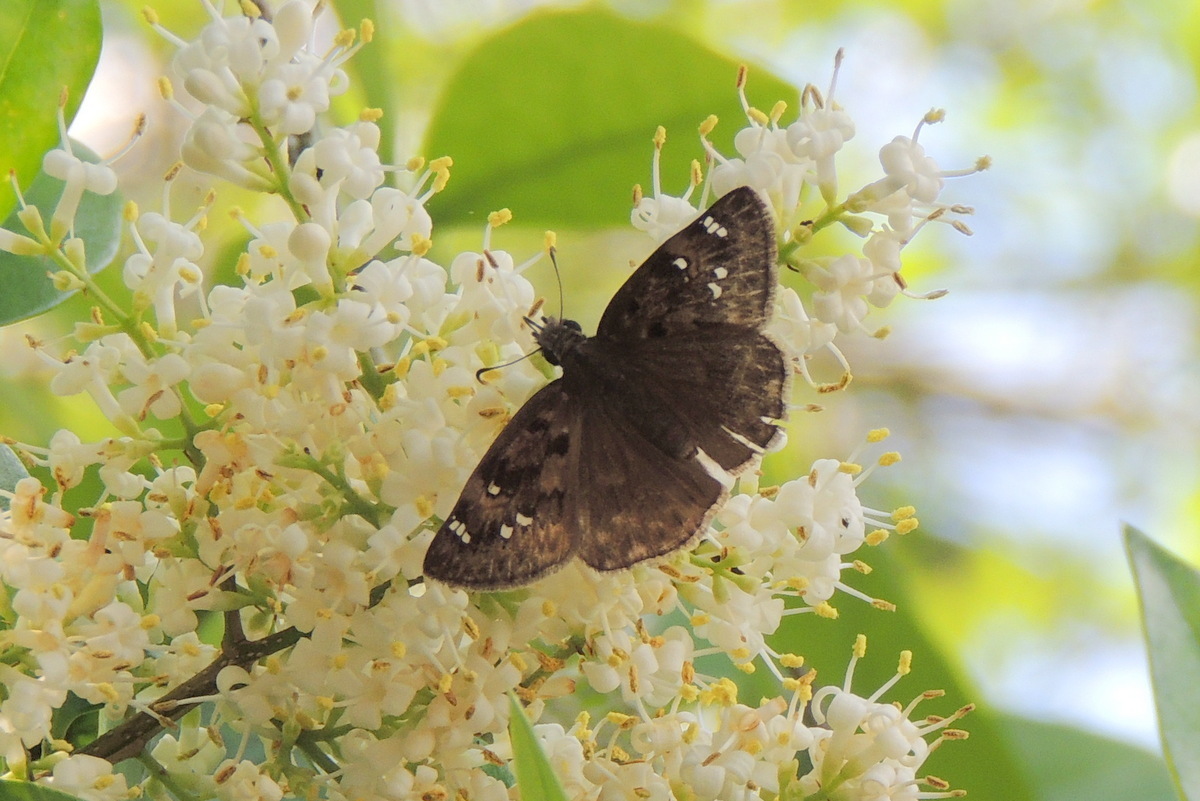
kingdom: Animalia
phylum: Arthropoda
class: Insecta
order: Lepidoptera
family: Hesperiidae
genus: Erynnis
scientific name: Erynnis horatius
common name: Horace's duskywing
